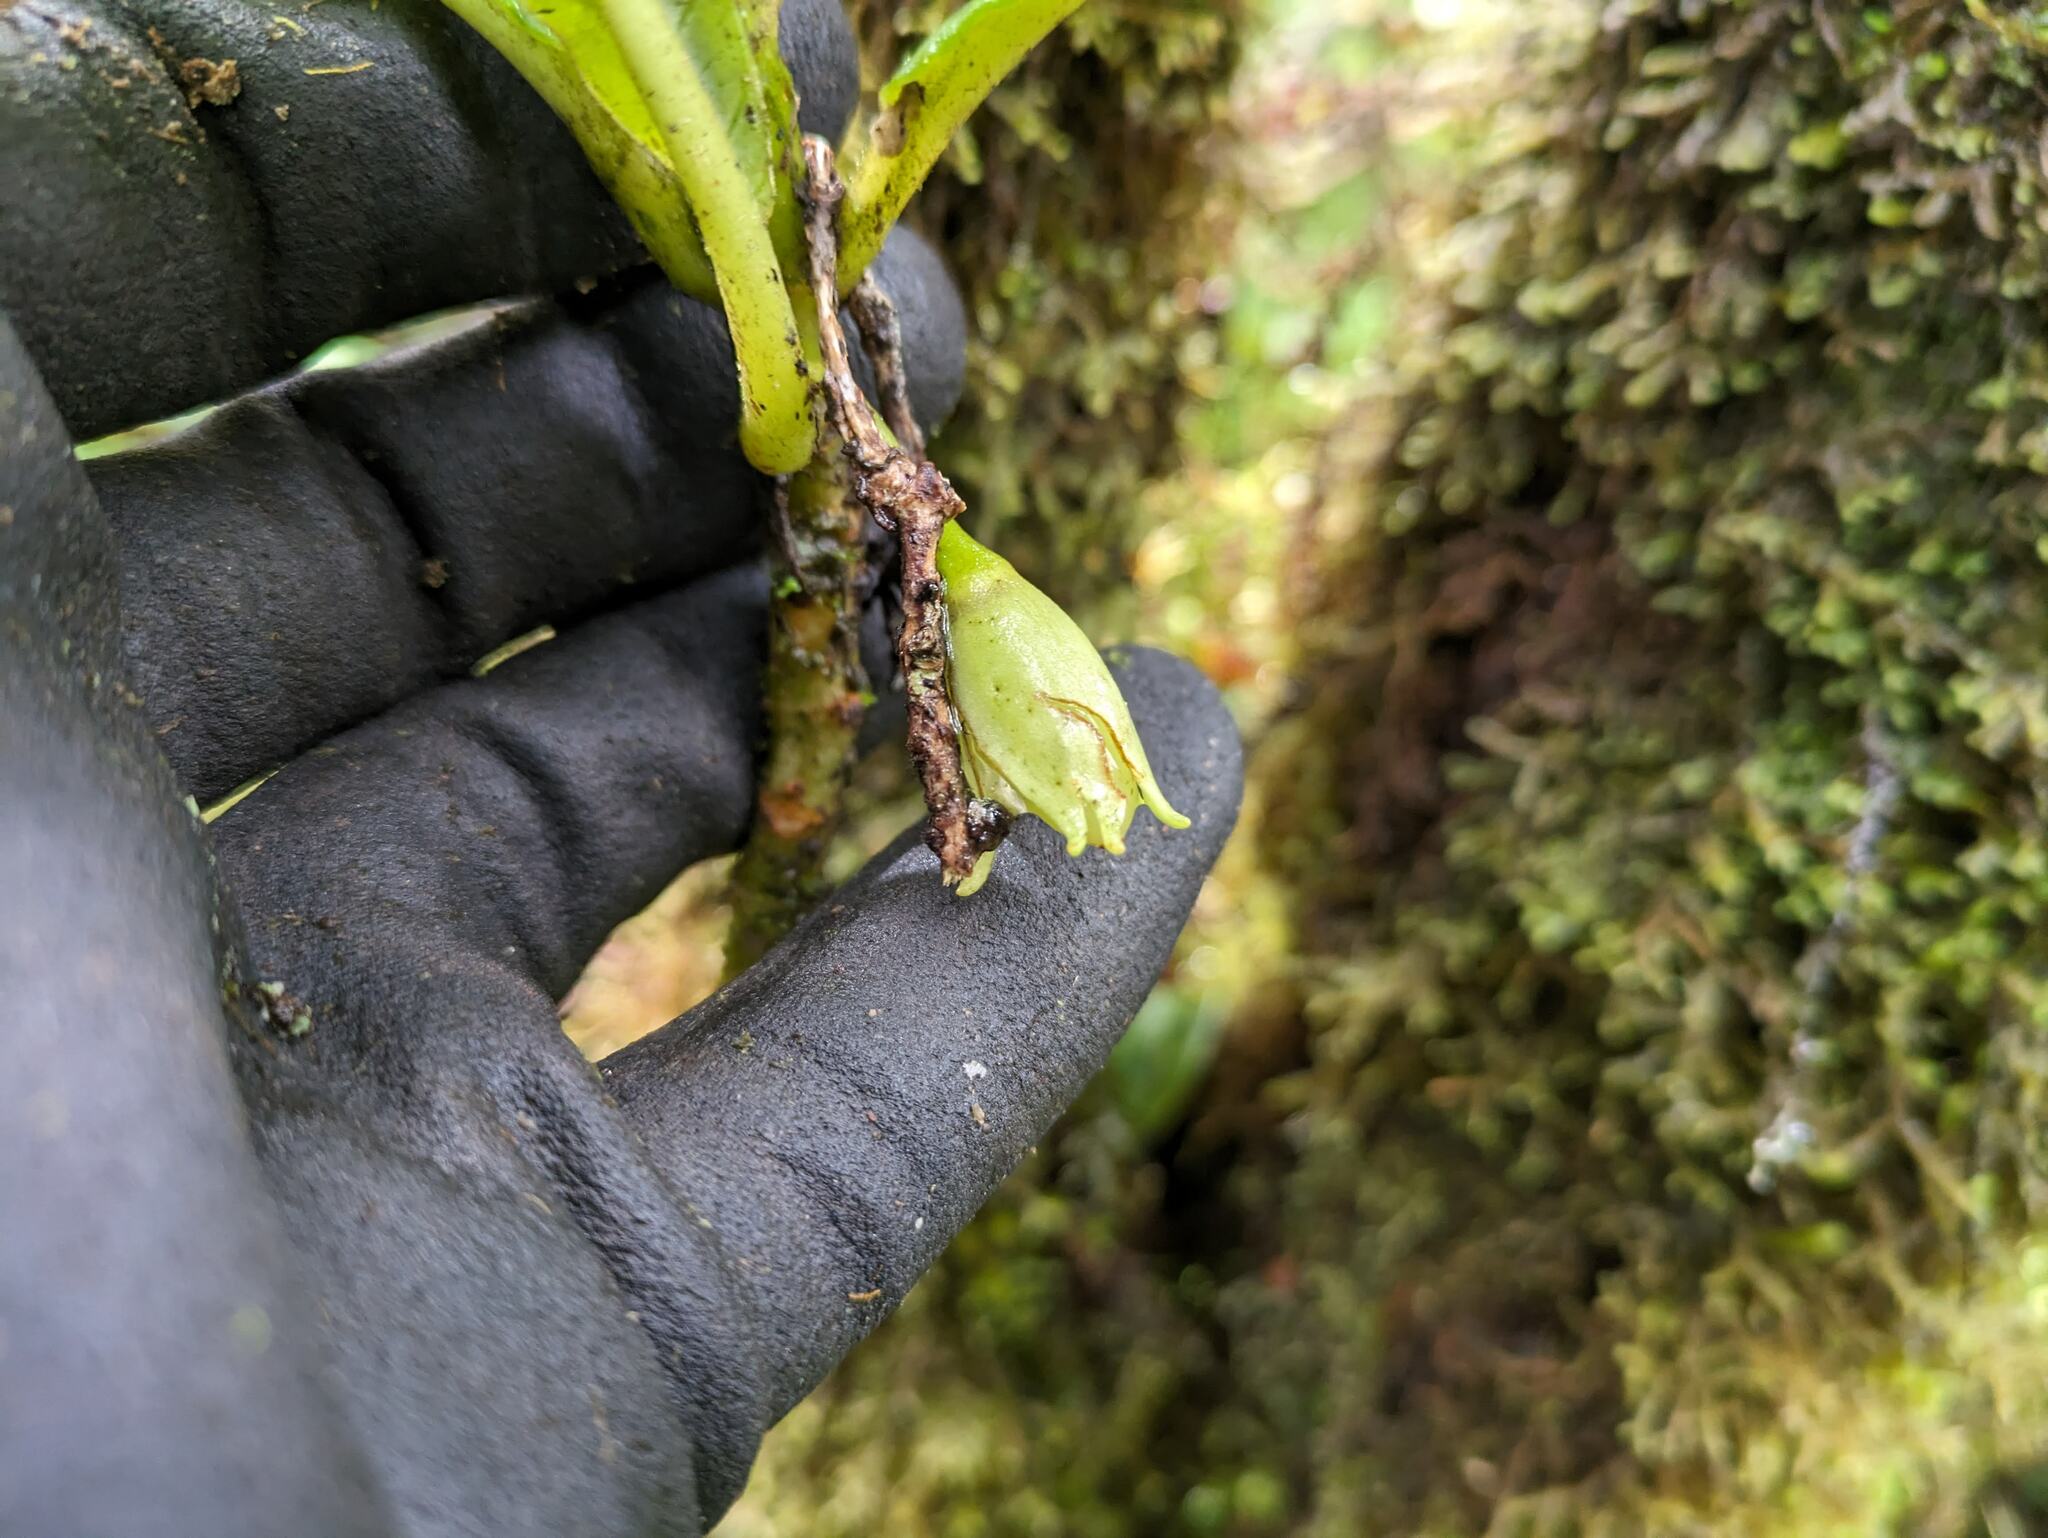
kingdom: Plantae
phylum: Tracheophyta
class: Magnoliopsida
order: Lamiales
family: Gesneriaceae
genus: Cyrtandra
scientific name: Cyrtandra longifolia
